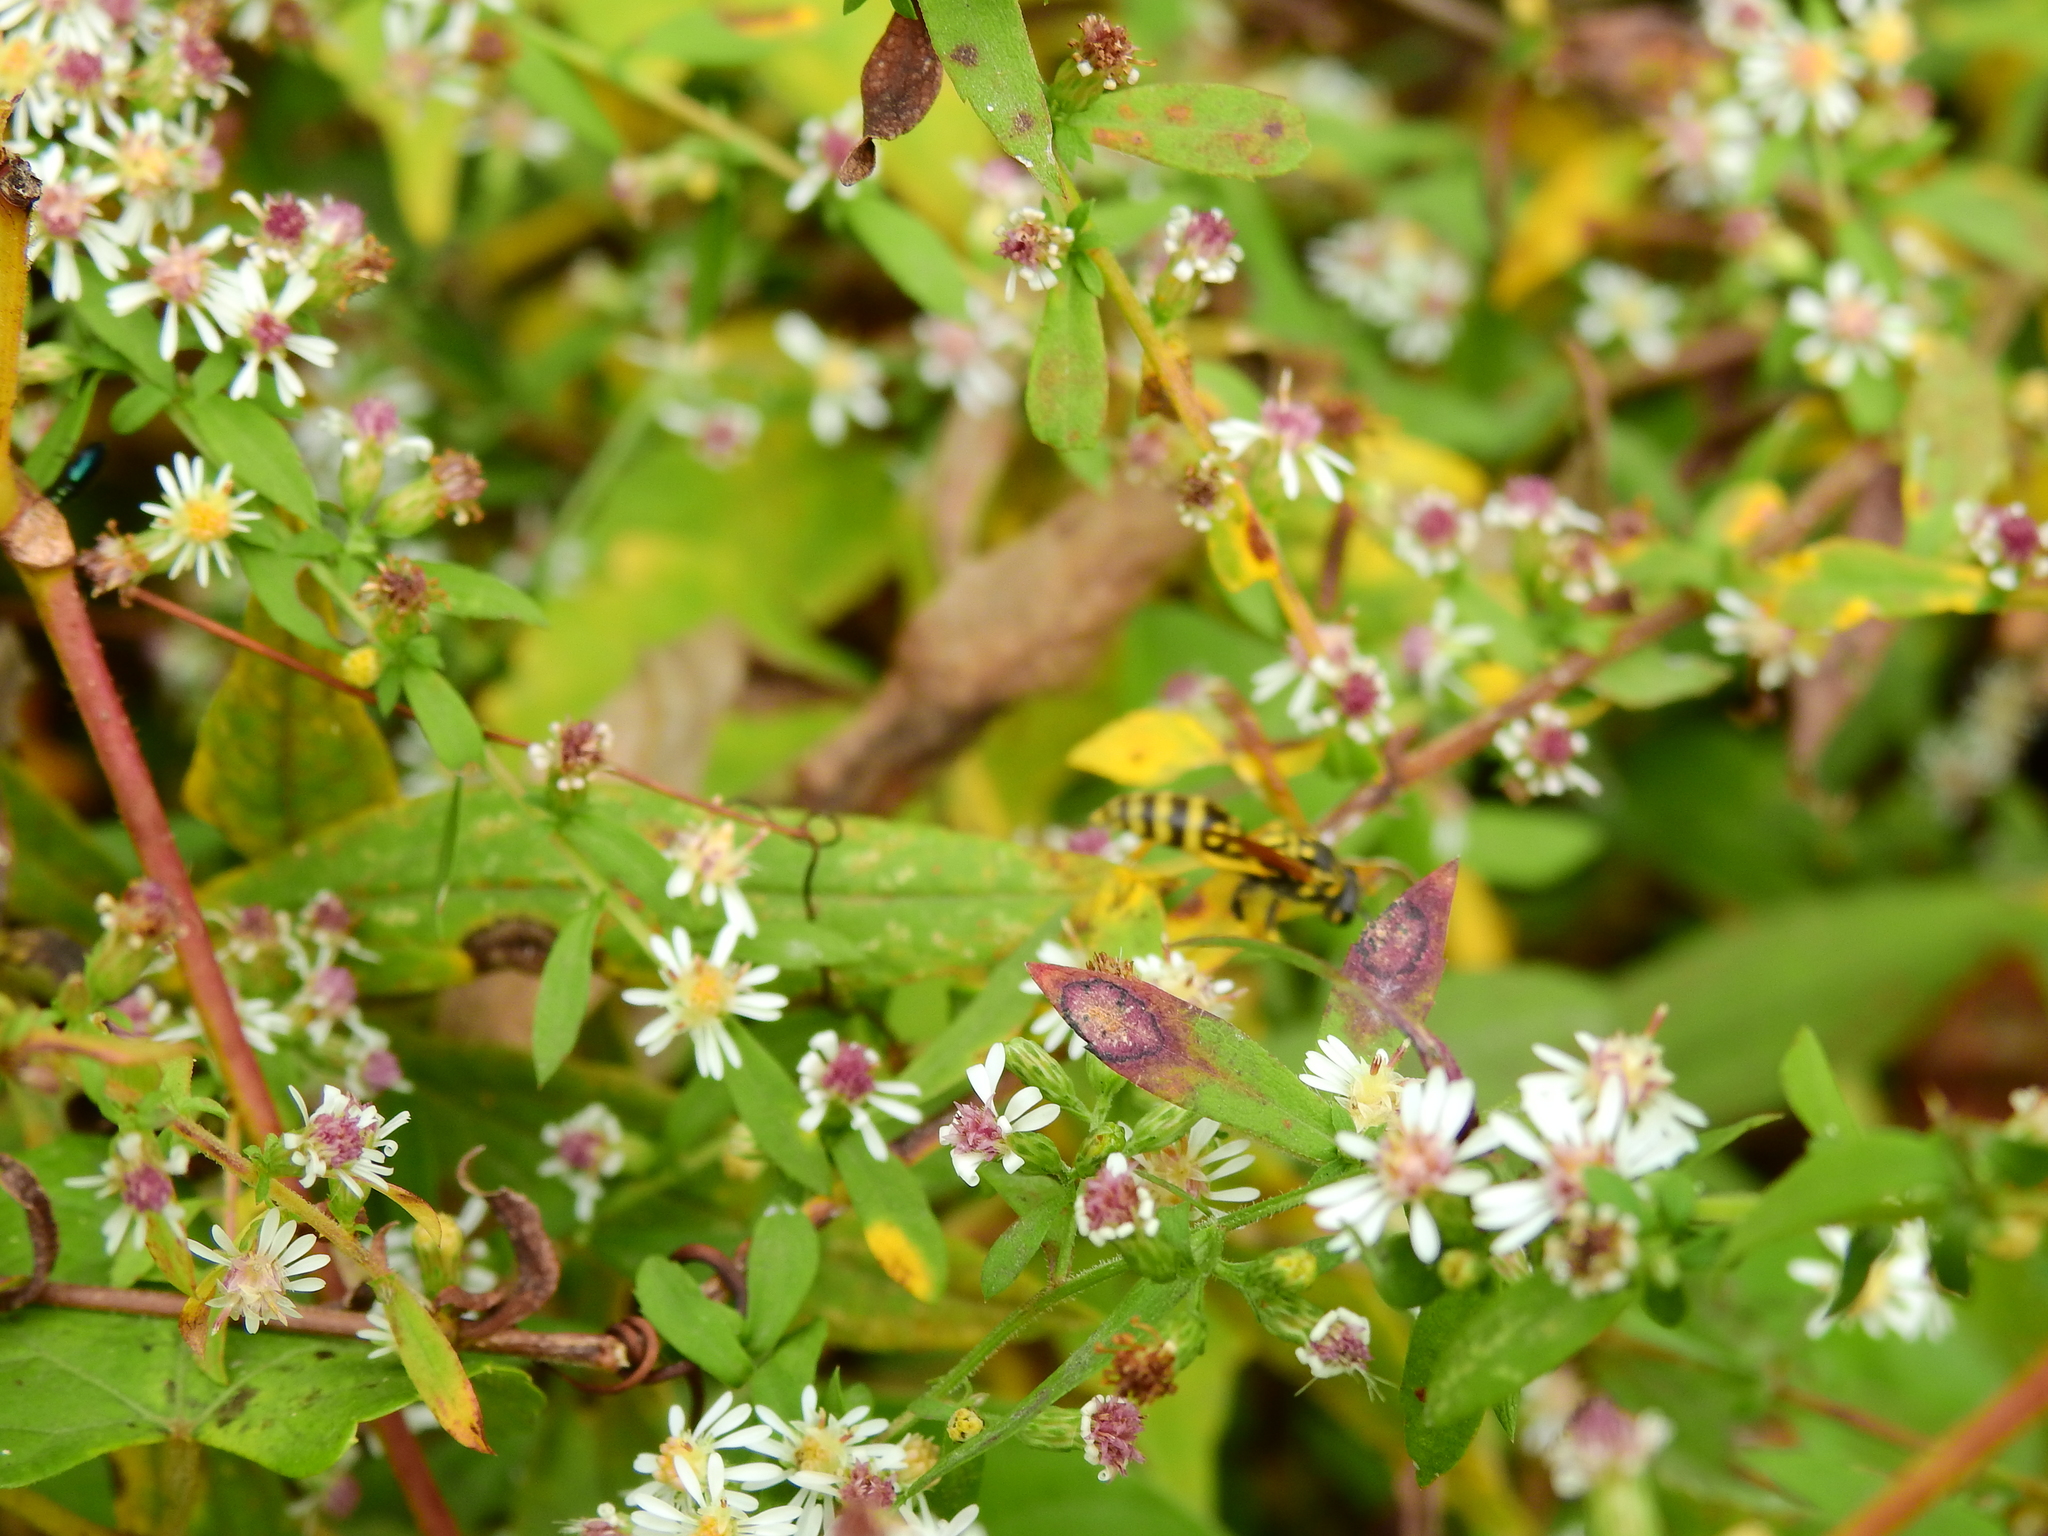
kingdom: Animalia
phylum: Arthropoda
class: Insecta
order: Hymenoptera
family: Eumenidae
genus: Polistes
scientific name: Polistes dominula
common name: Paper wasp
